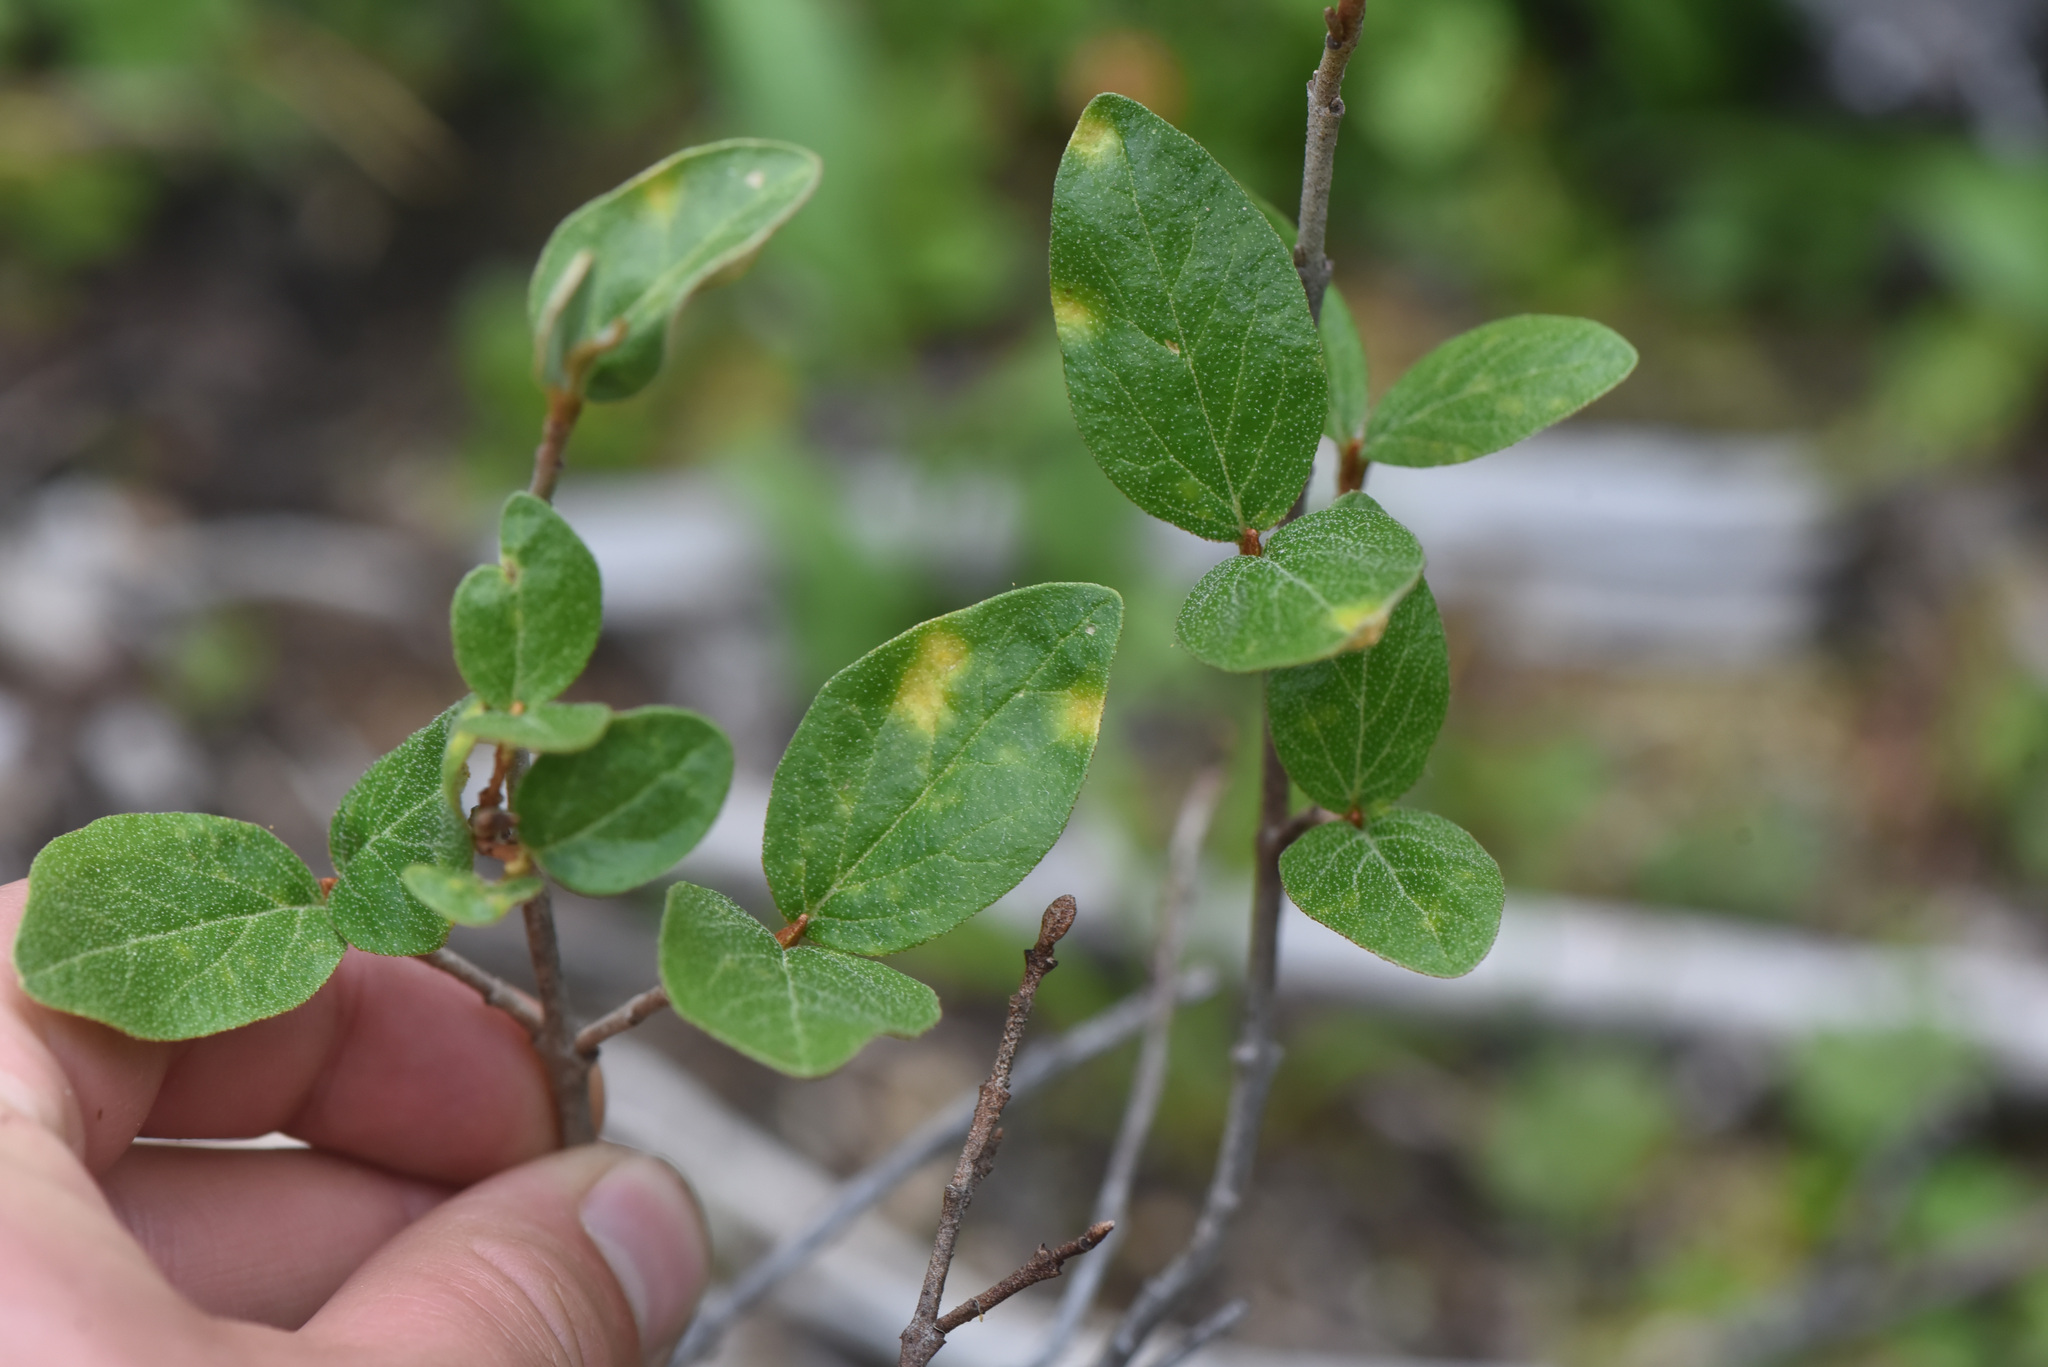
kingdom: Plantae
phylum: Tracheophyta
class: Magnoliopsida
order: Rosales
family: Elaeagnaceae
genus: Shepherdia
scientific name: Shepherdia canadensis
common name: Soapberry
